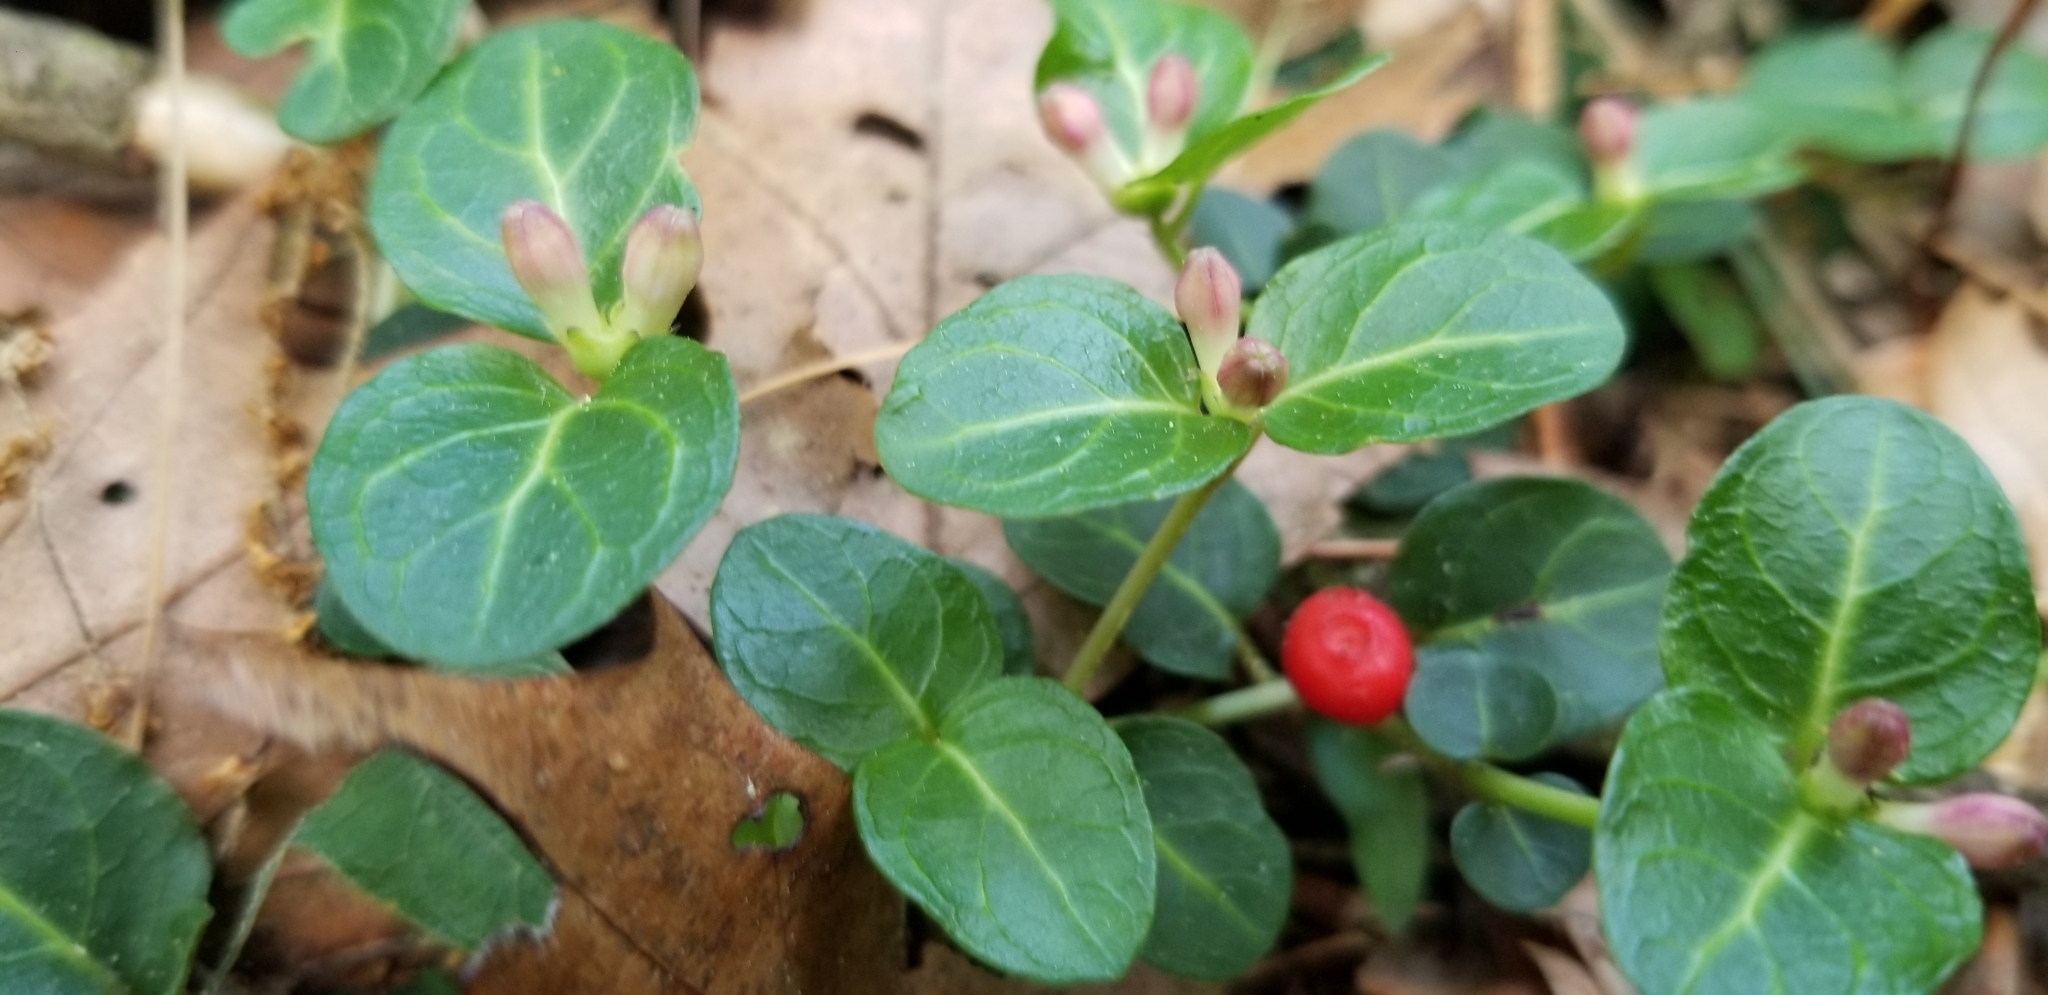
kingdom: Plantae
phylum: Tracheophyta
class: Magnoliopsida
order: Gentianales
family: Rubiaceae
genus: Mitchella
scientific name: Mitchella repens
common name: Partridge-berry
